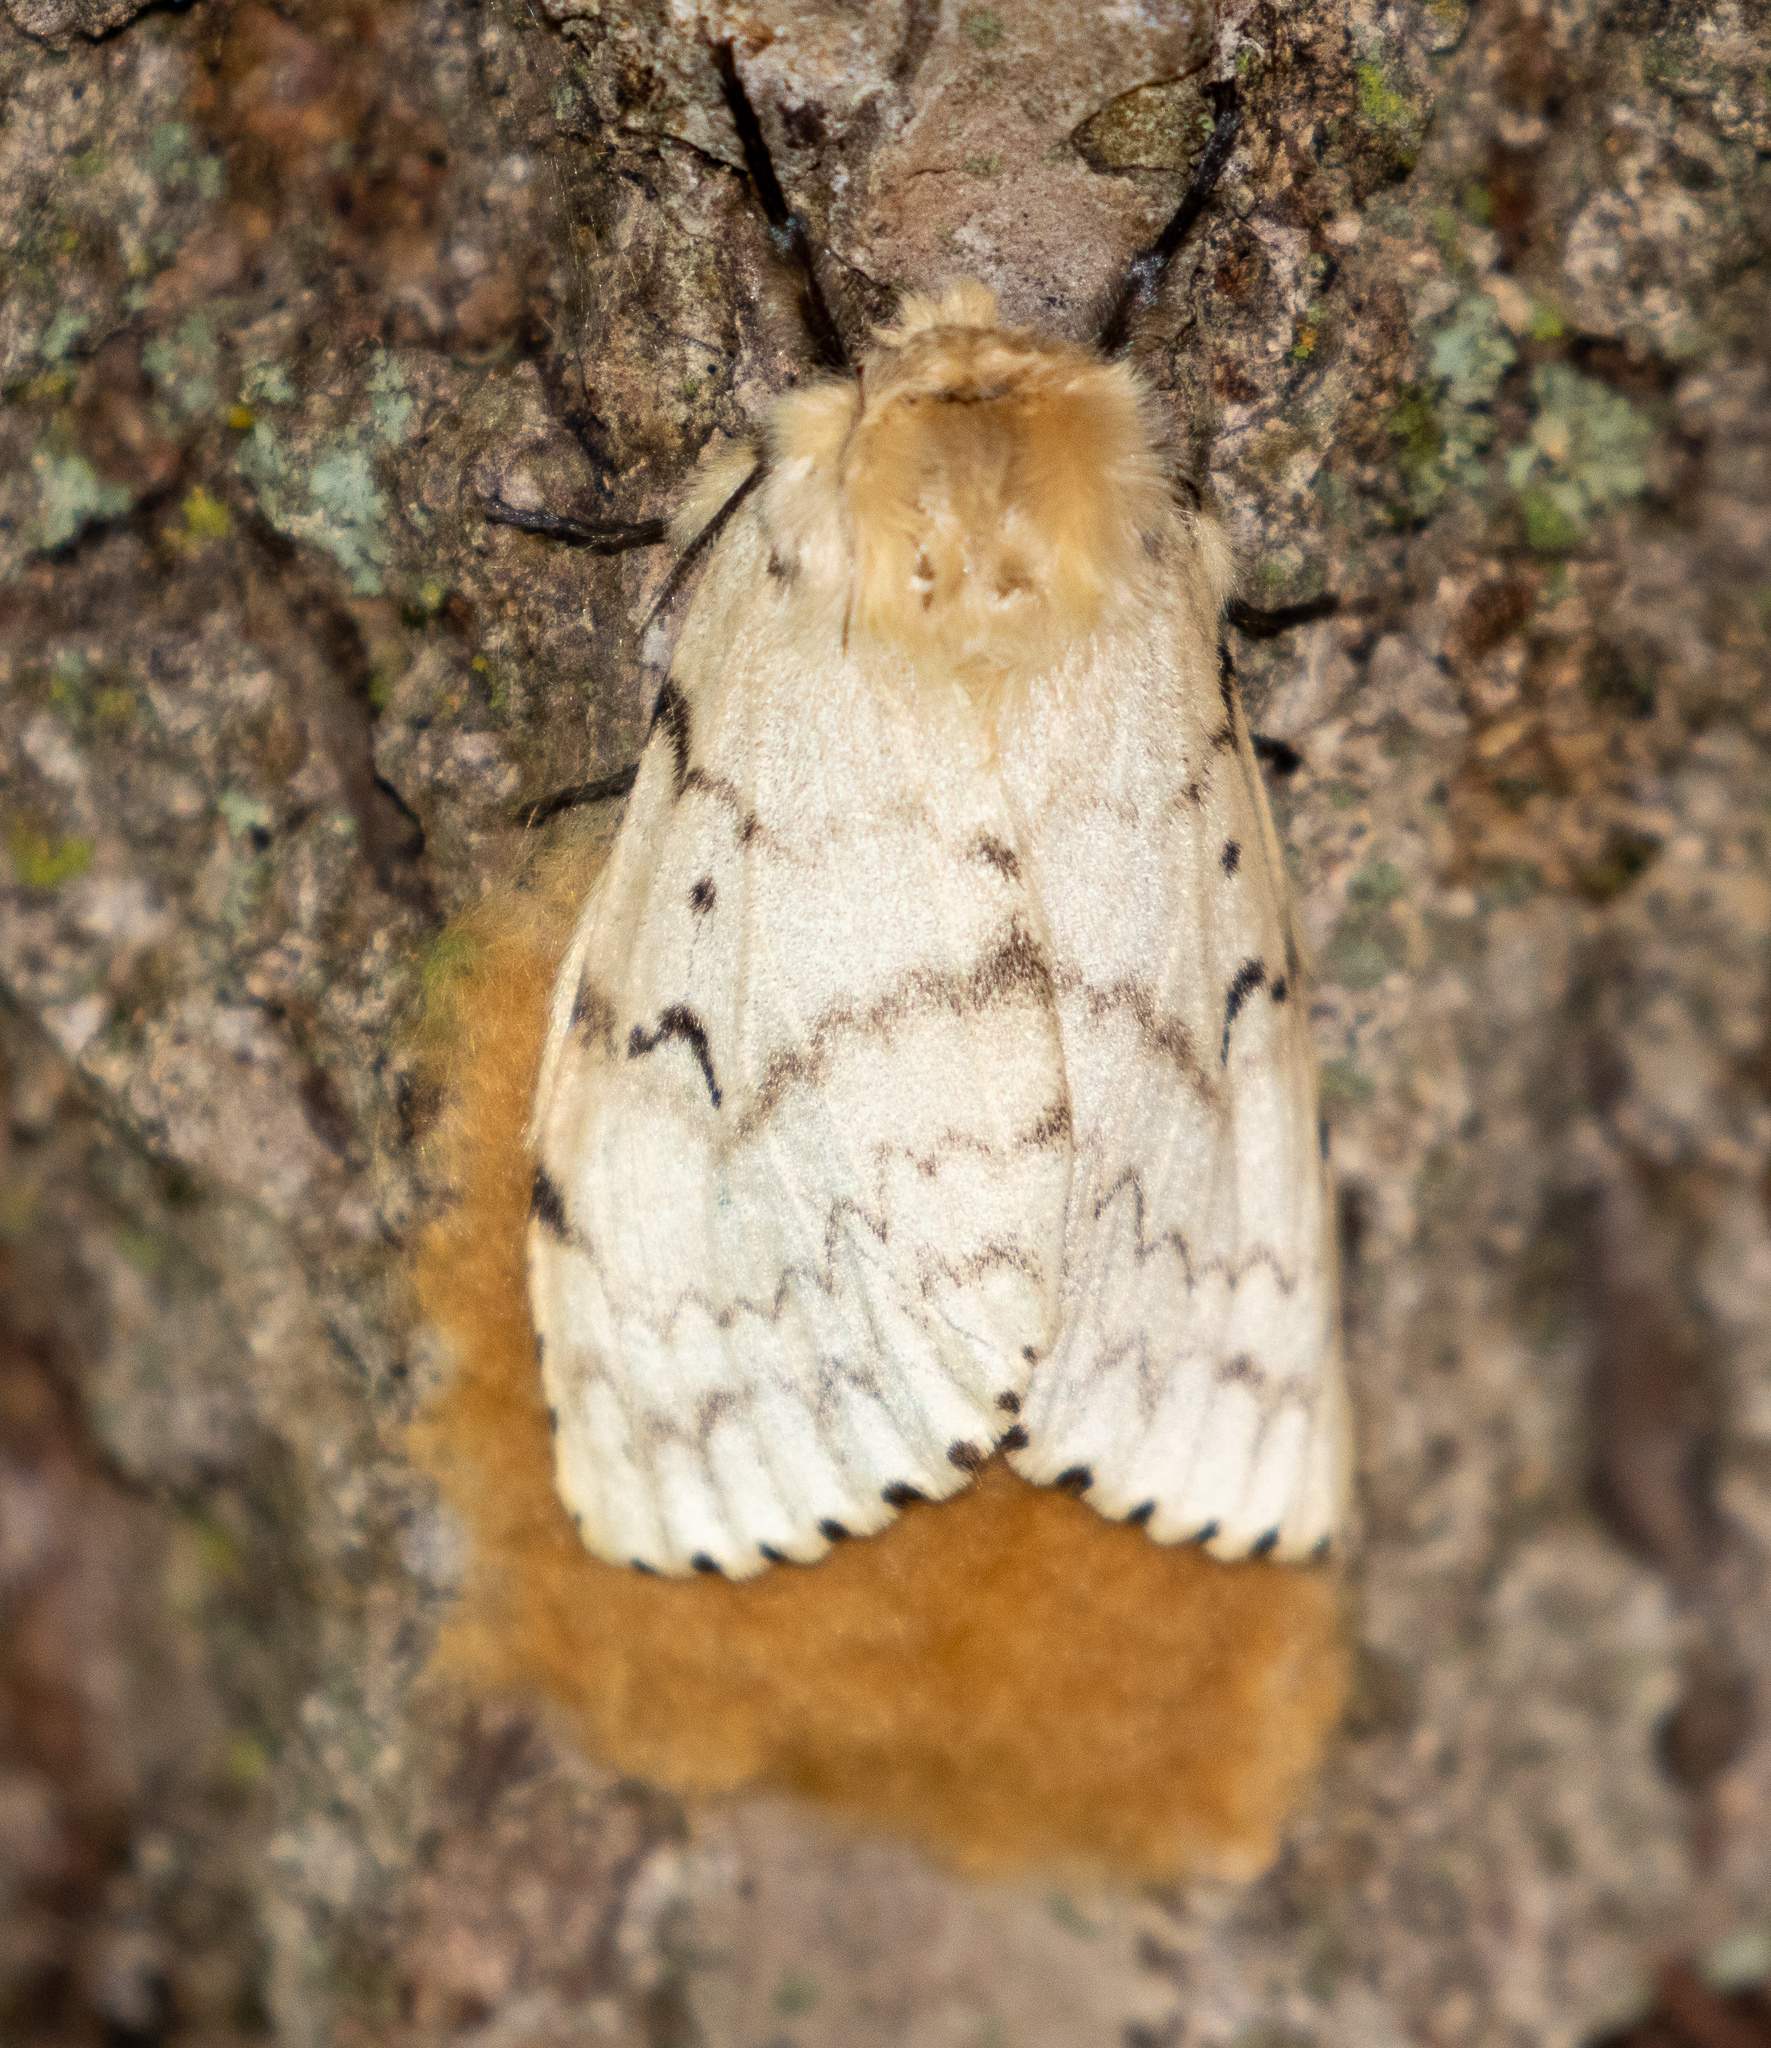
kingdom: Animalia
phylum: Arthropoda
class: Insecta
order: Lepidoptera
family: Erebidae
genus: Lymantria
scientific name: Lymantria dispar
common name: Gypsy moth
